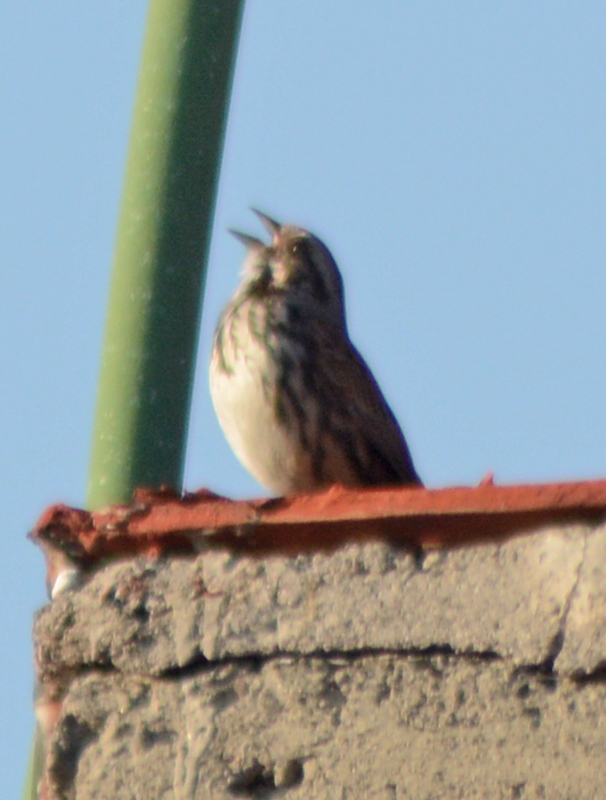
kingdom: Animalia
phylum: Chordata
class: Aves
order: Passeriformes
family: Passerellidae
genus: Melospiza
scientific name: Melospiza melodia
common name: Song sparrow
